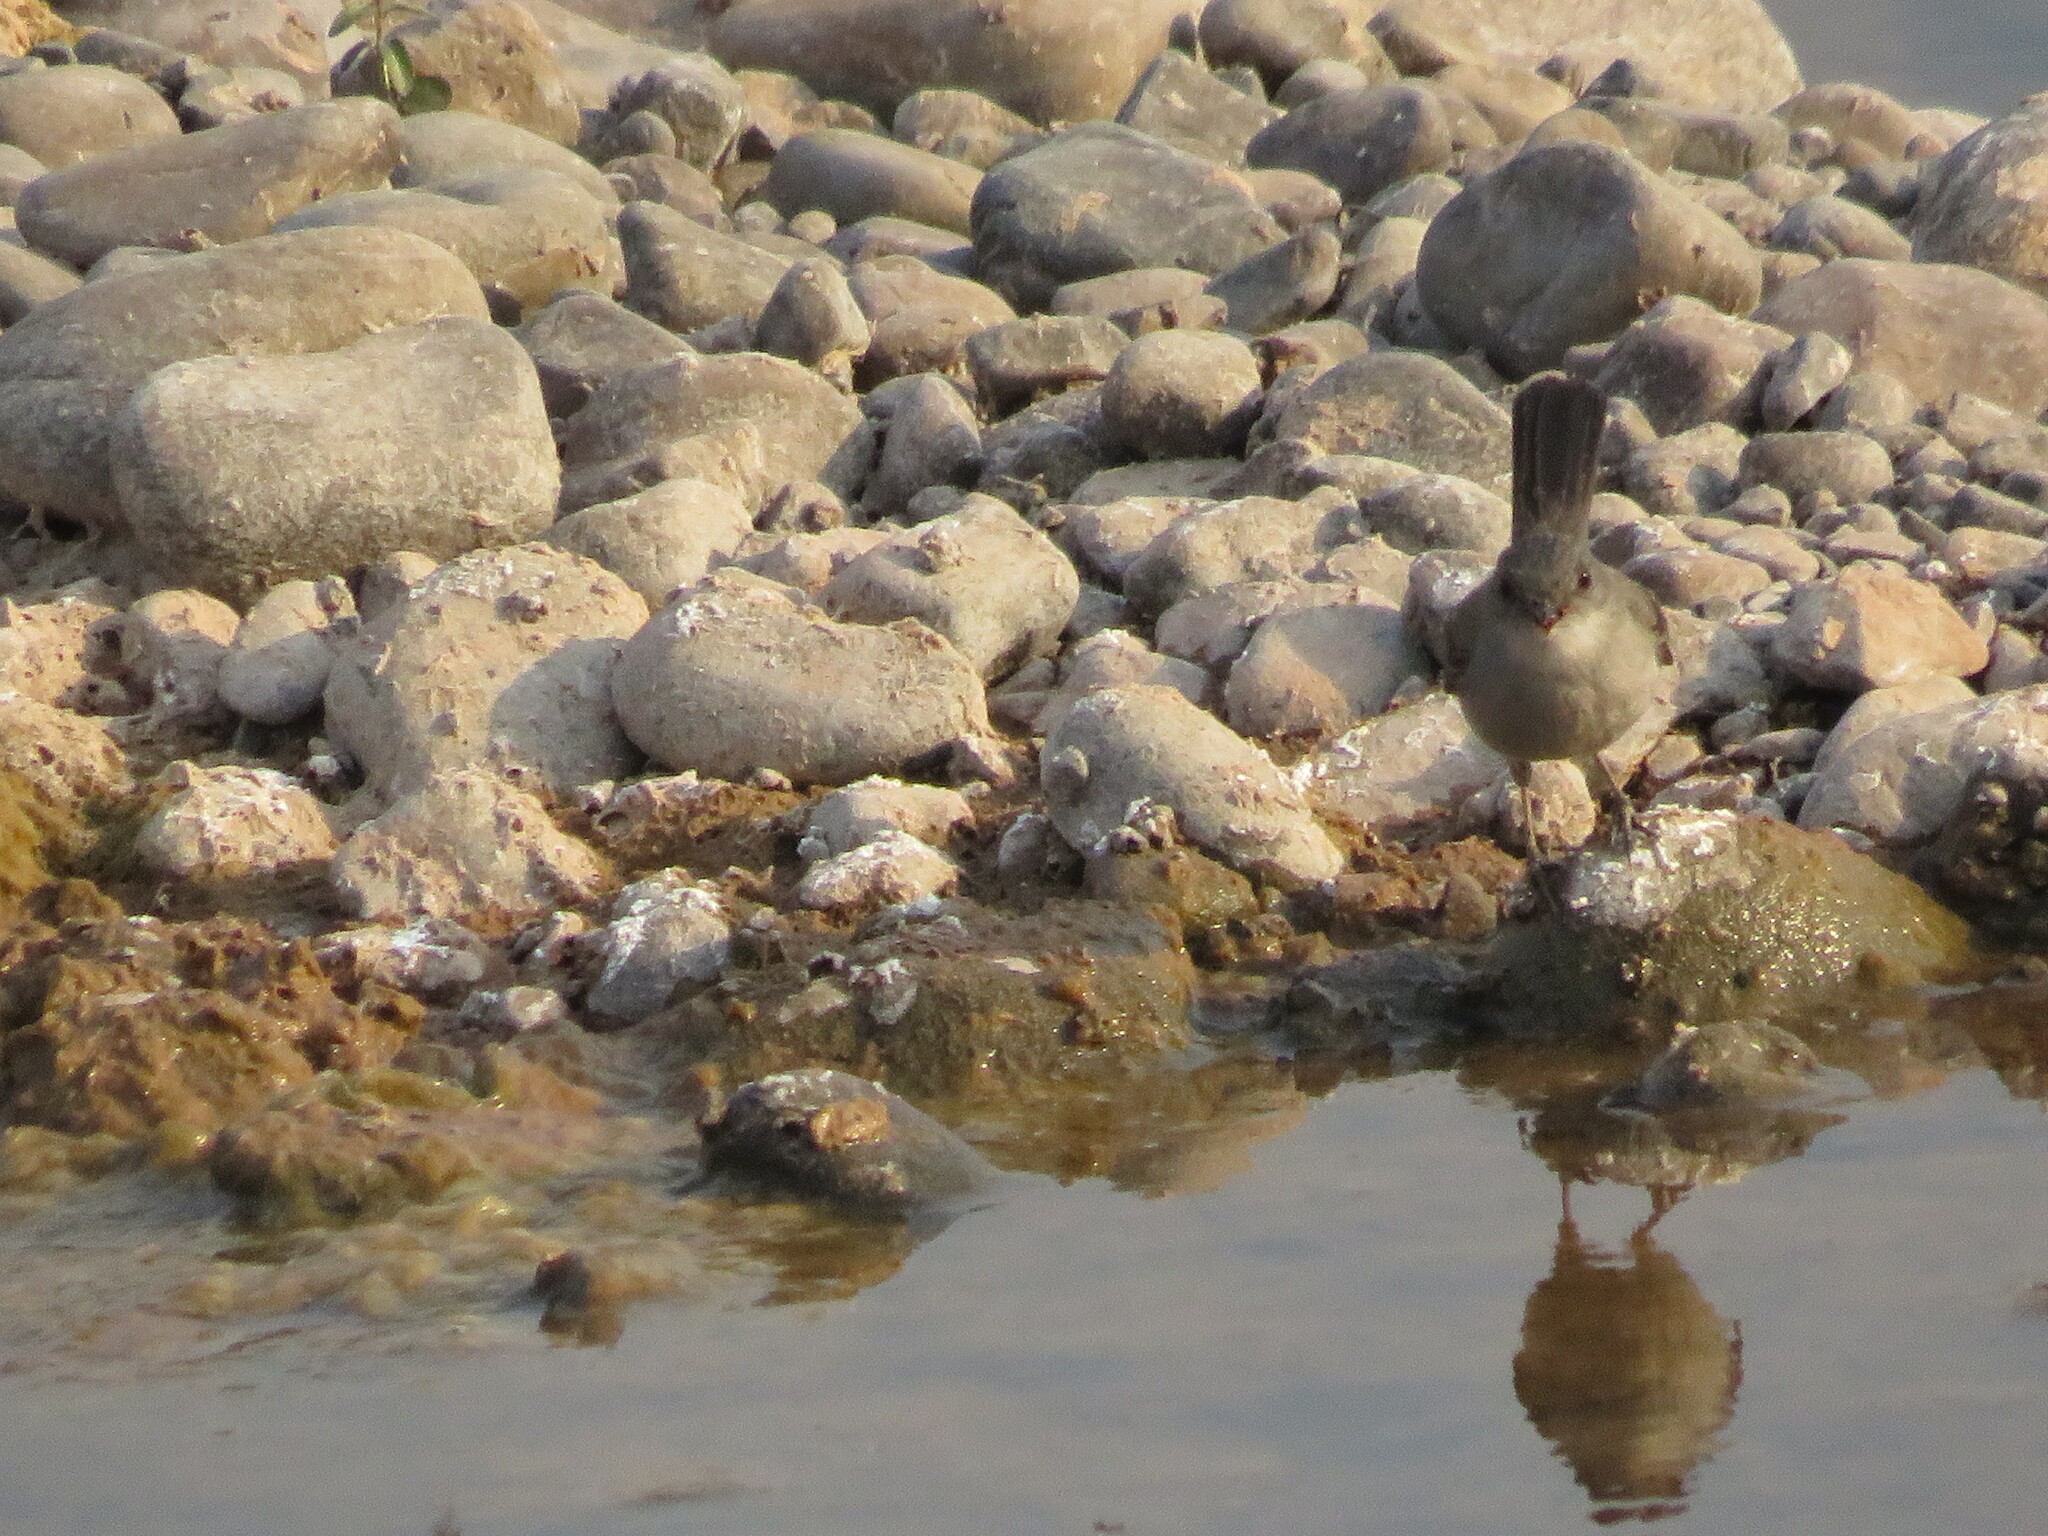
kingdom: Animalia
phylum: Chordata
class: Aves
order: Passeriformes
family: Tyrannidae
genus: Serpophaga
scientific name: Serpophaga nigricans
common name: Sooty tyrannulet
